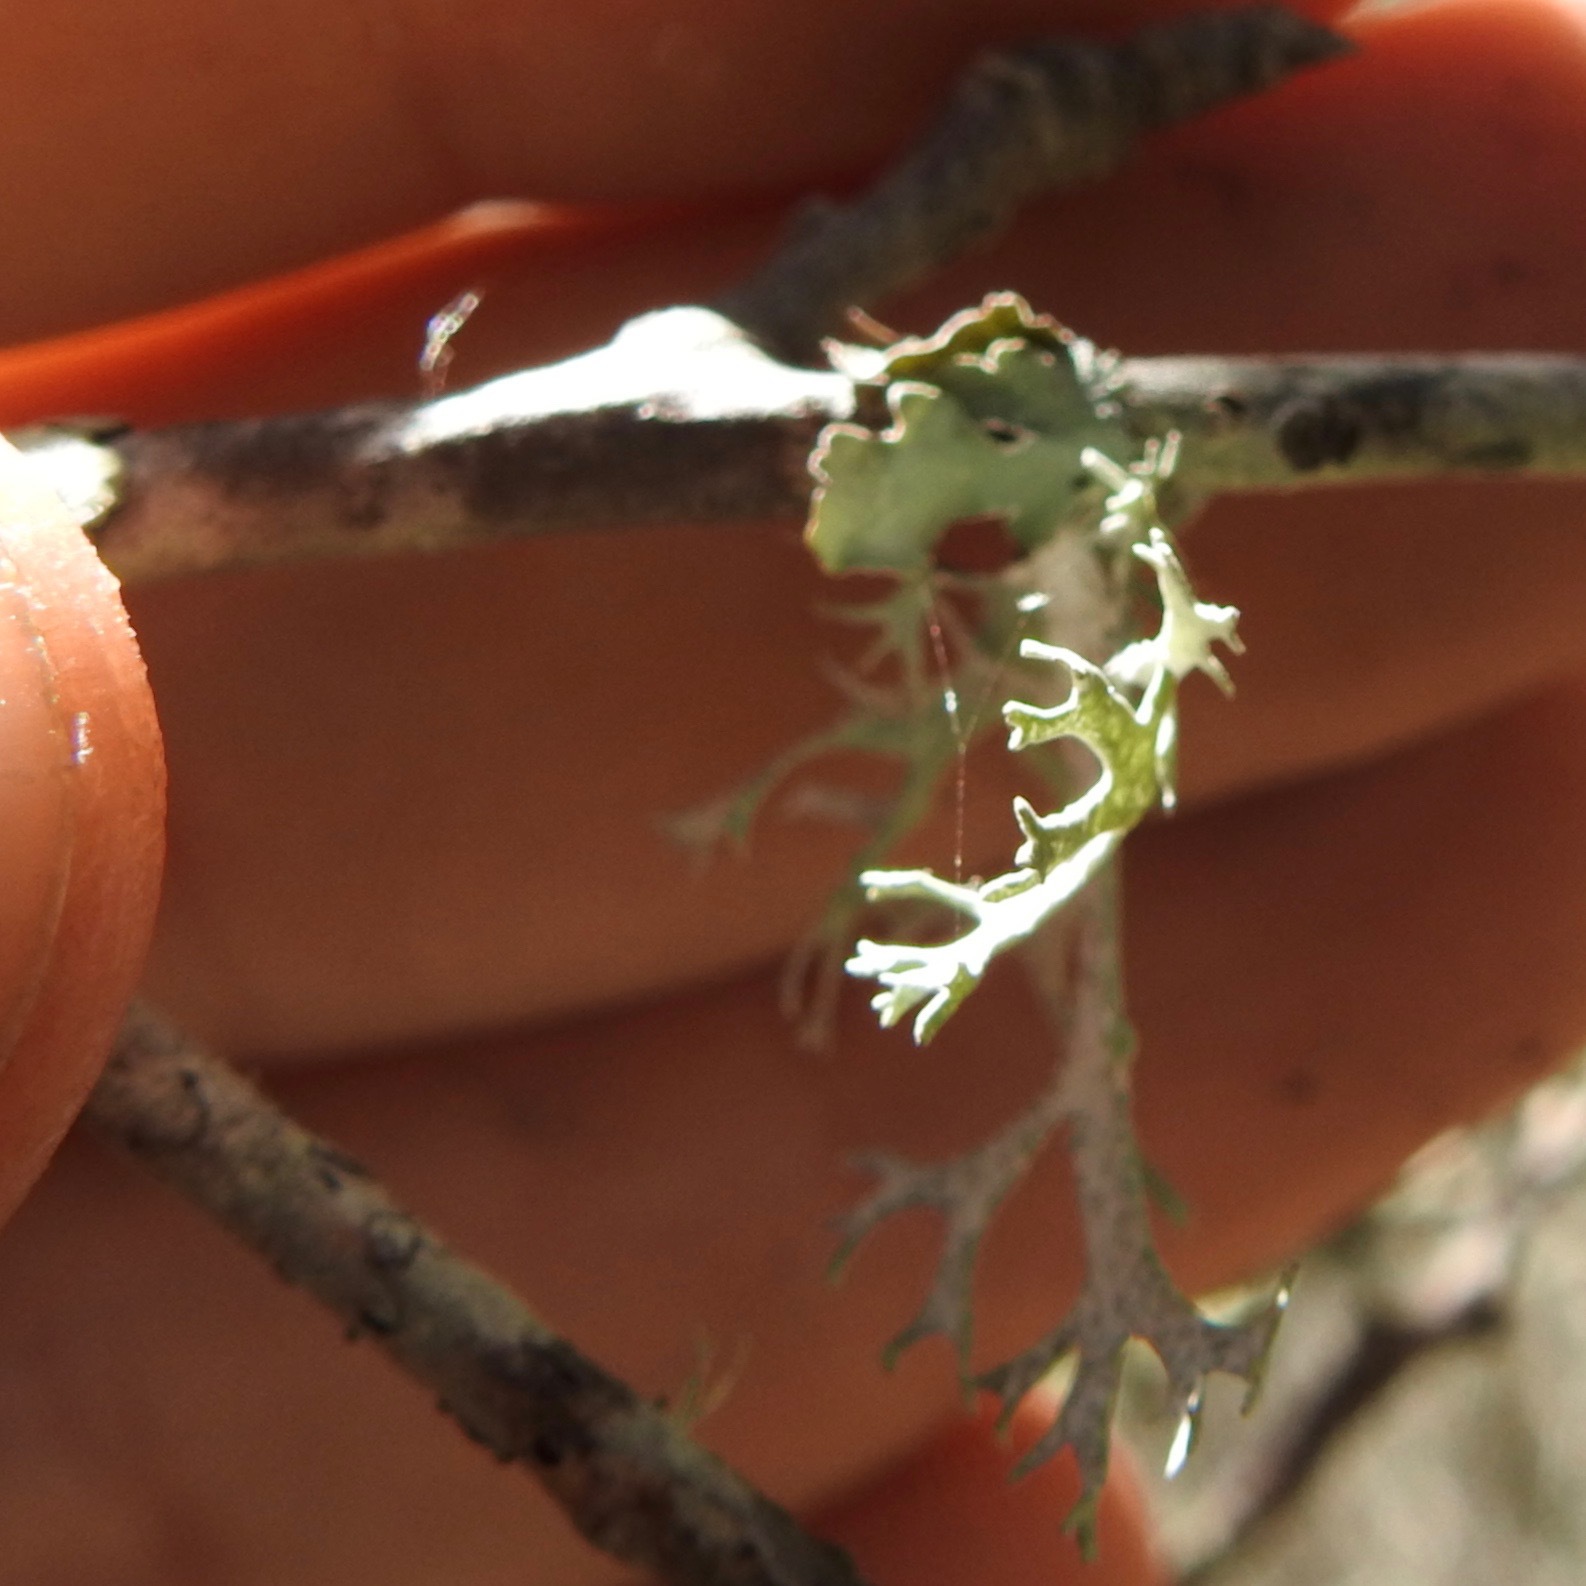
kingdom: Fungi
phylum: Ascomycota
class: Lecanoromycetes
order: Lecanorales
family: Parmeliaceae
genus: Evernia
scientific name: Evernia prunastri
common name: Oak moss
